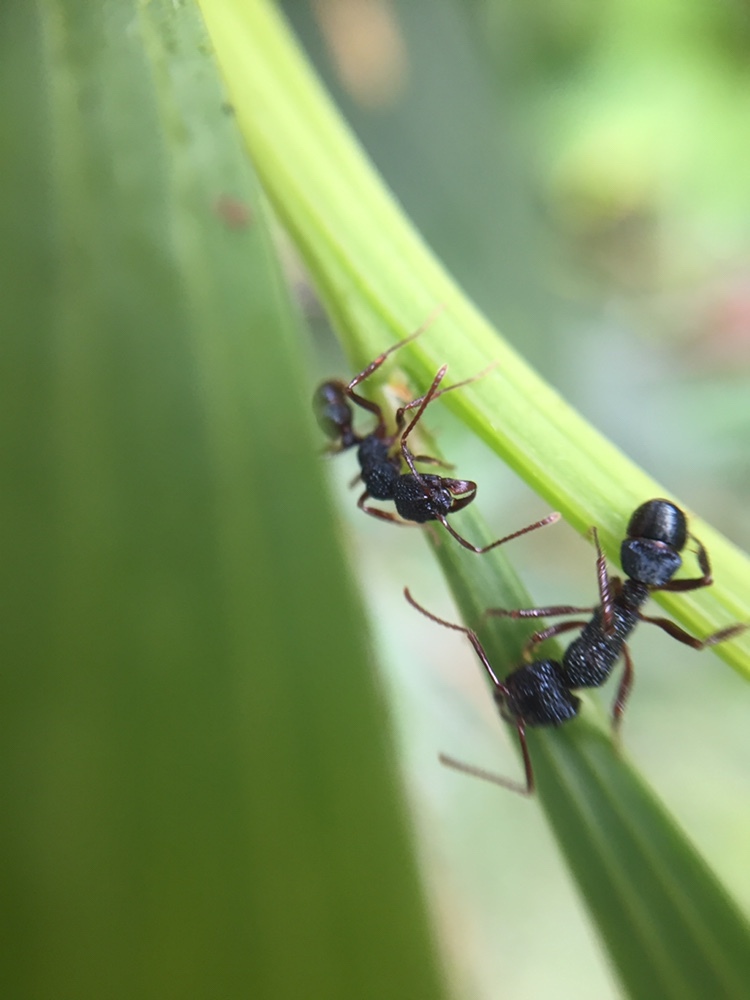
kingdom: Animalia
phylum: Arthropoda
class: Insecta
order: Hymenoptera
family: Formicidae
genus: Rhytidoponera
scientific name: Rhytidoponera chalybaea
